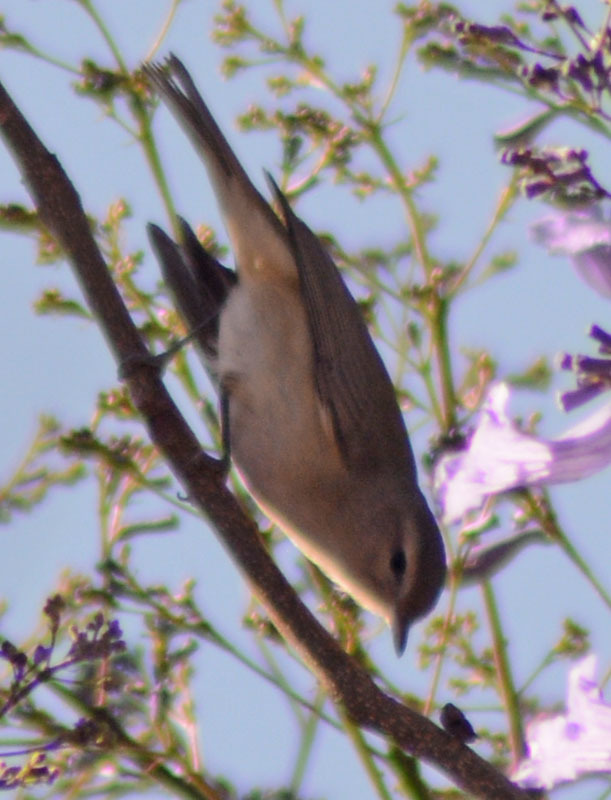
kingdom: Animalia
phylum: Chordata
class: Aves
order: Passeriformes
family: Vireonidae
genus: Vireo
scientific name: Vireo gilvus
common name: Warbling vireo
